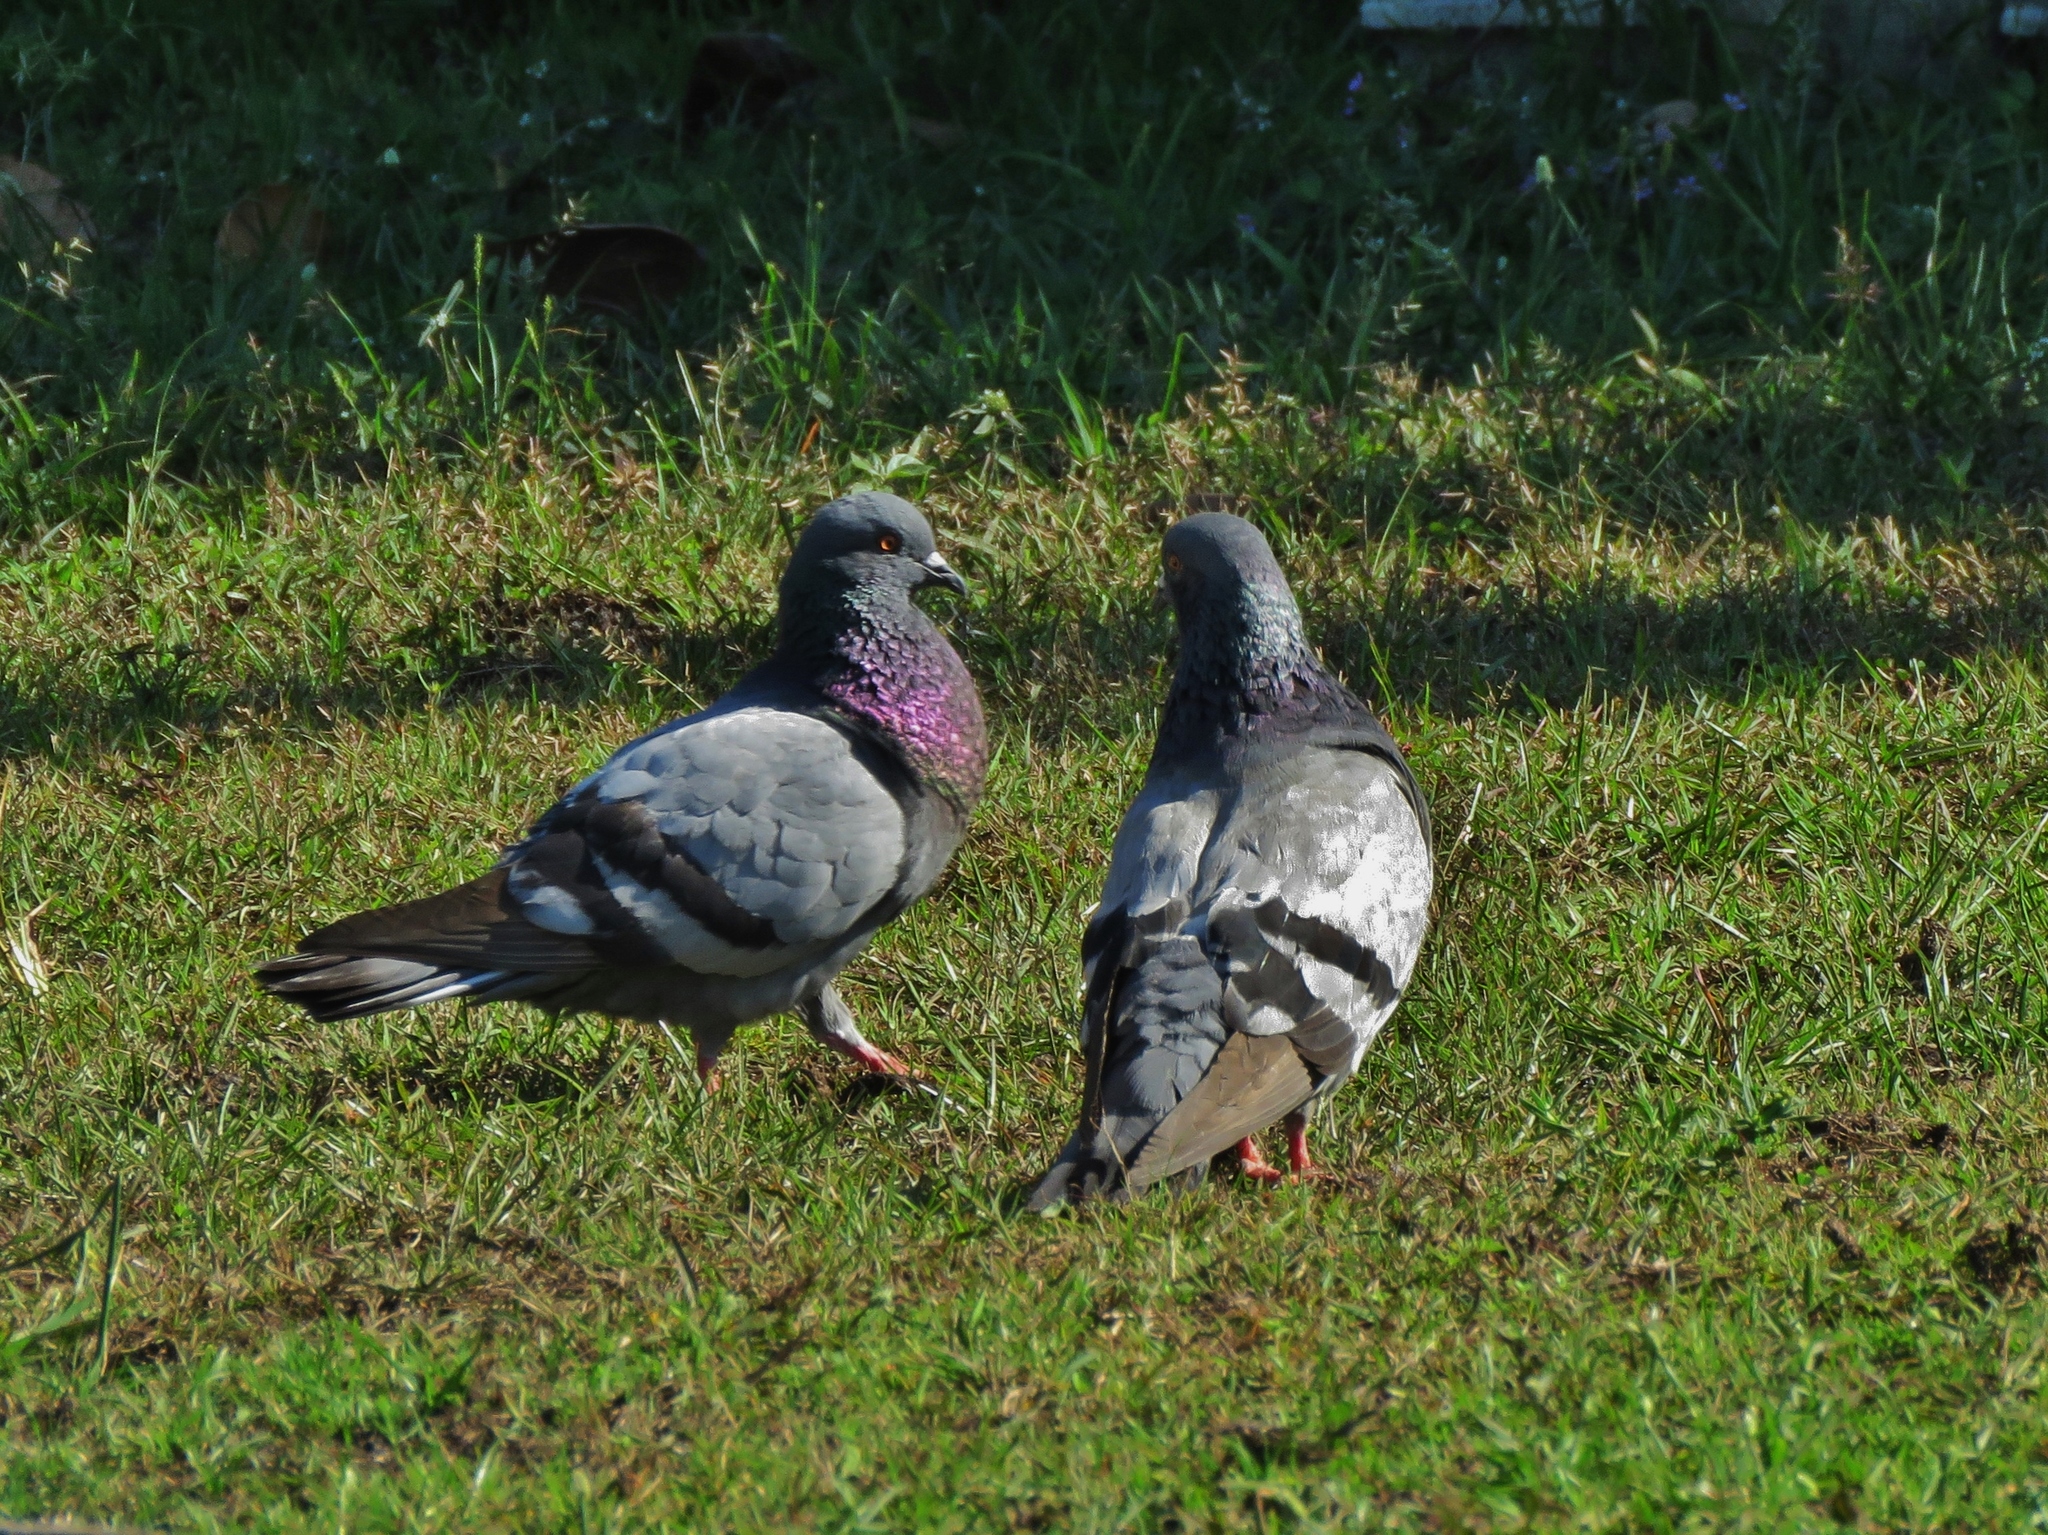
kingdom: Animalia
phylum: Chordata
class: Aves
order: Columbiformes
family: Columbidae
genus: Columba
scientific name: Columba livia
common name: Rock pigeon
